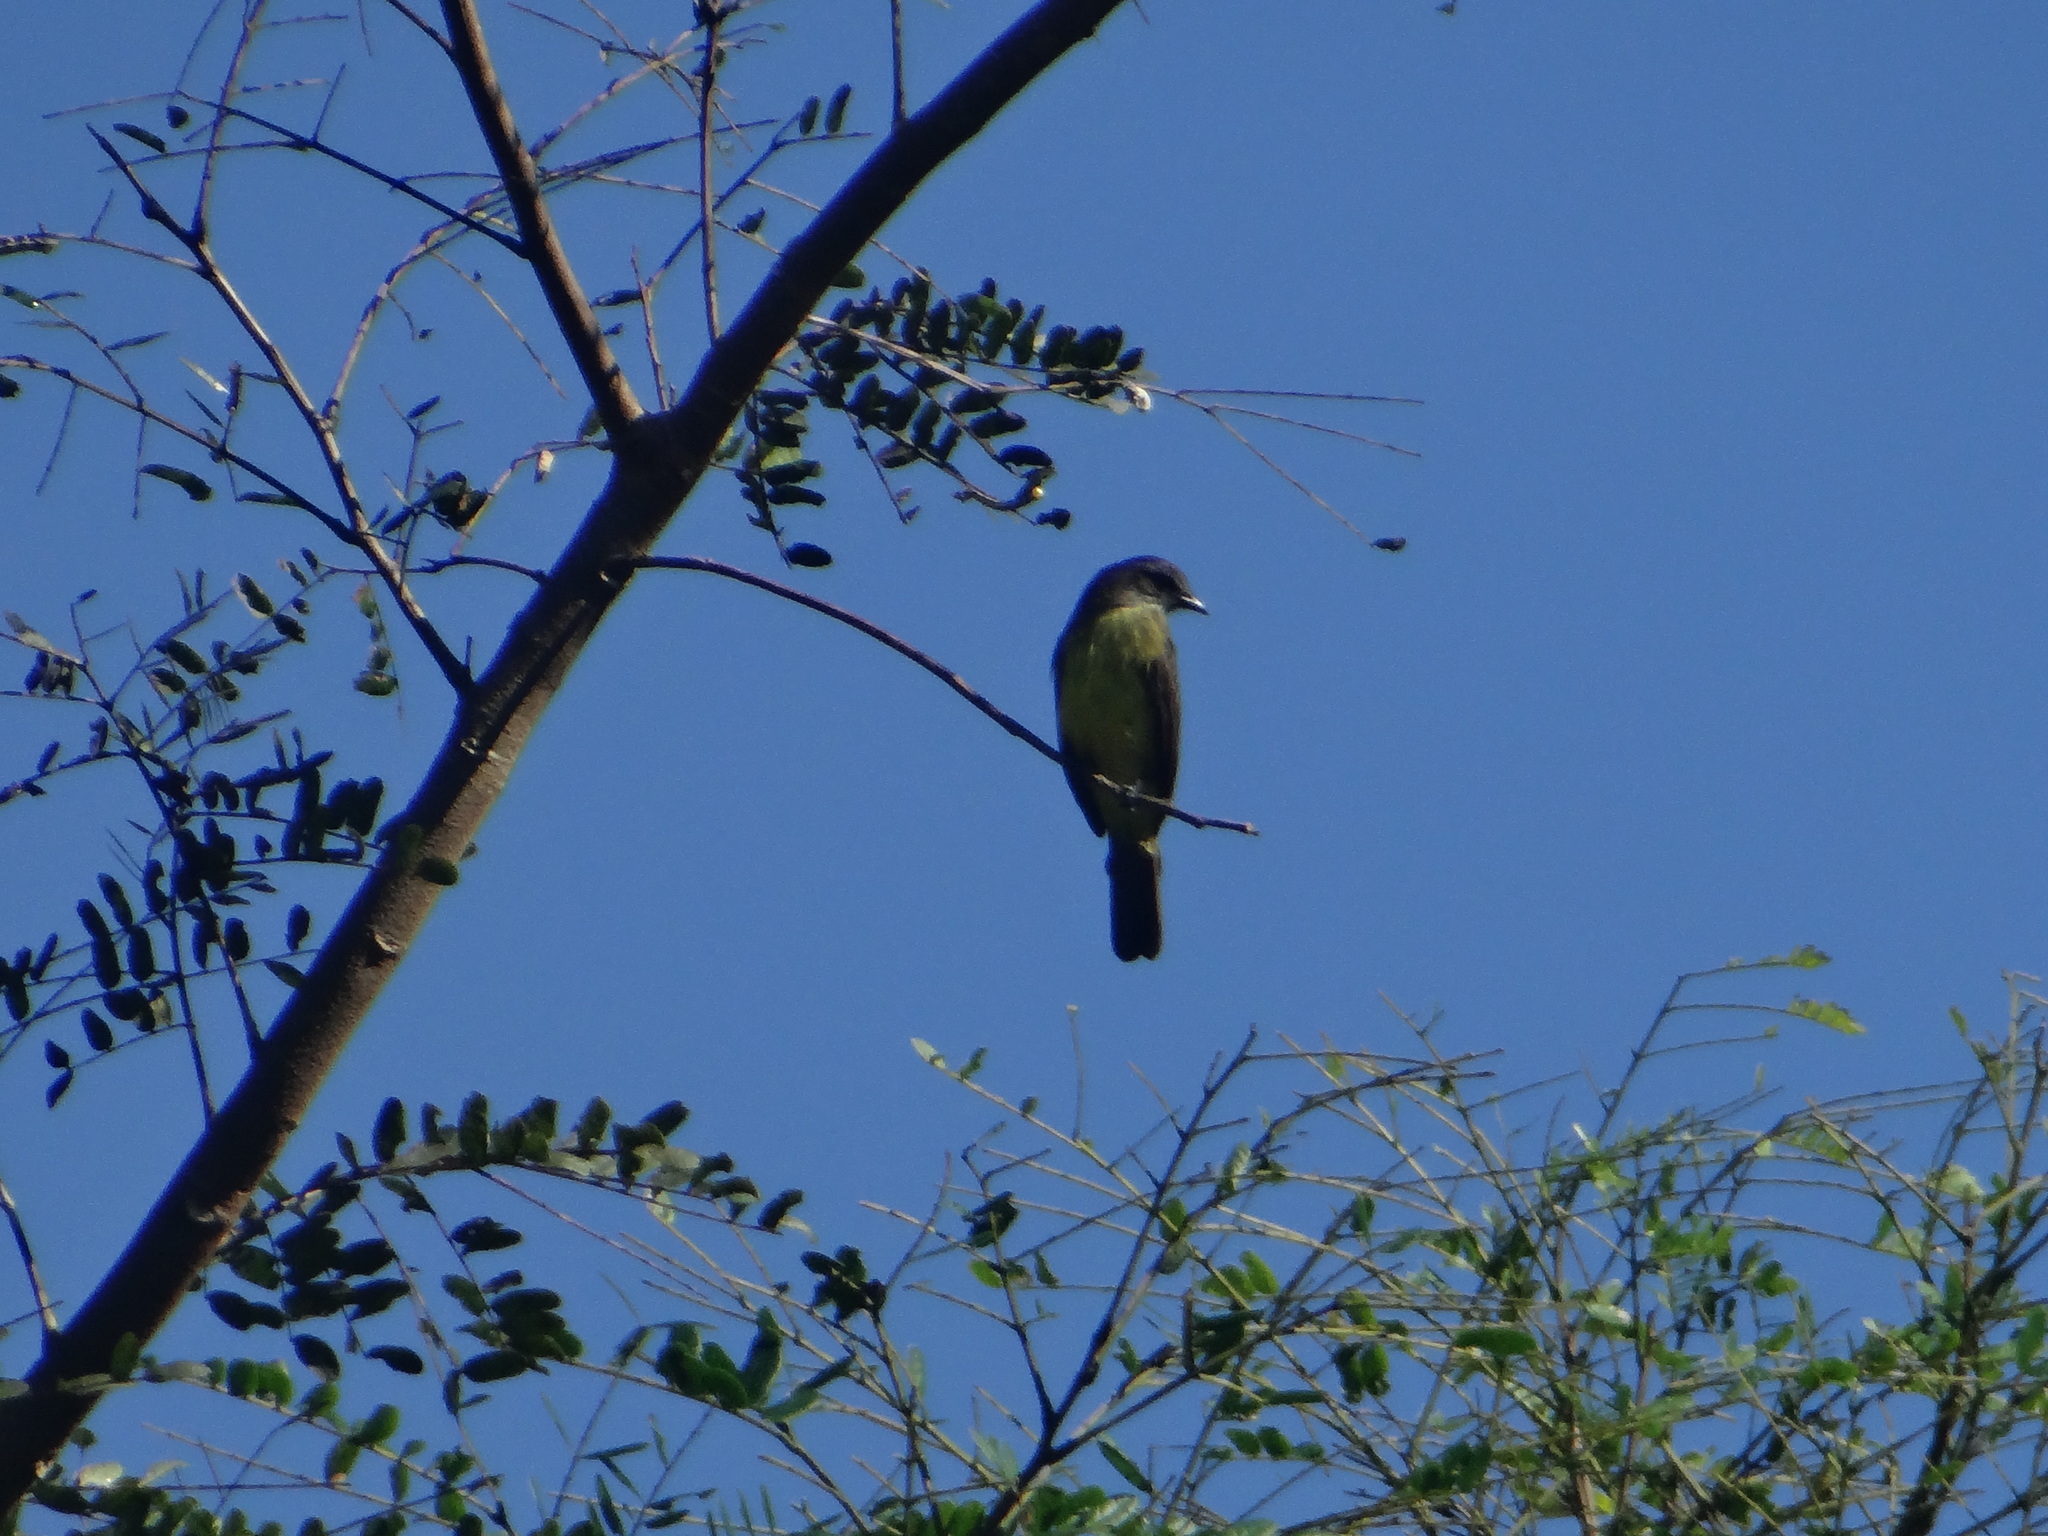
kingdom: Animalia
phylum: Chordata
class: Aves
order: Passeriformes
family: Tyrannidae
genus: Myiozetetes
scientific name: Myiozetetes luteiventris
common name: Dusky-chested flycatcher
